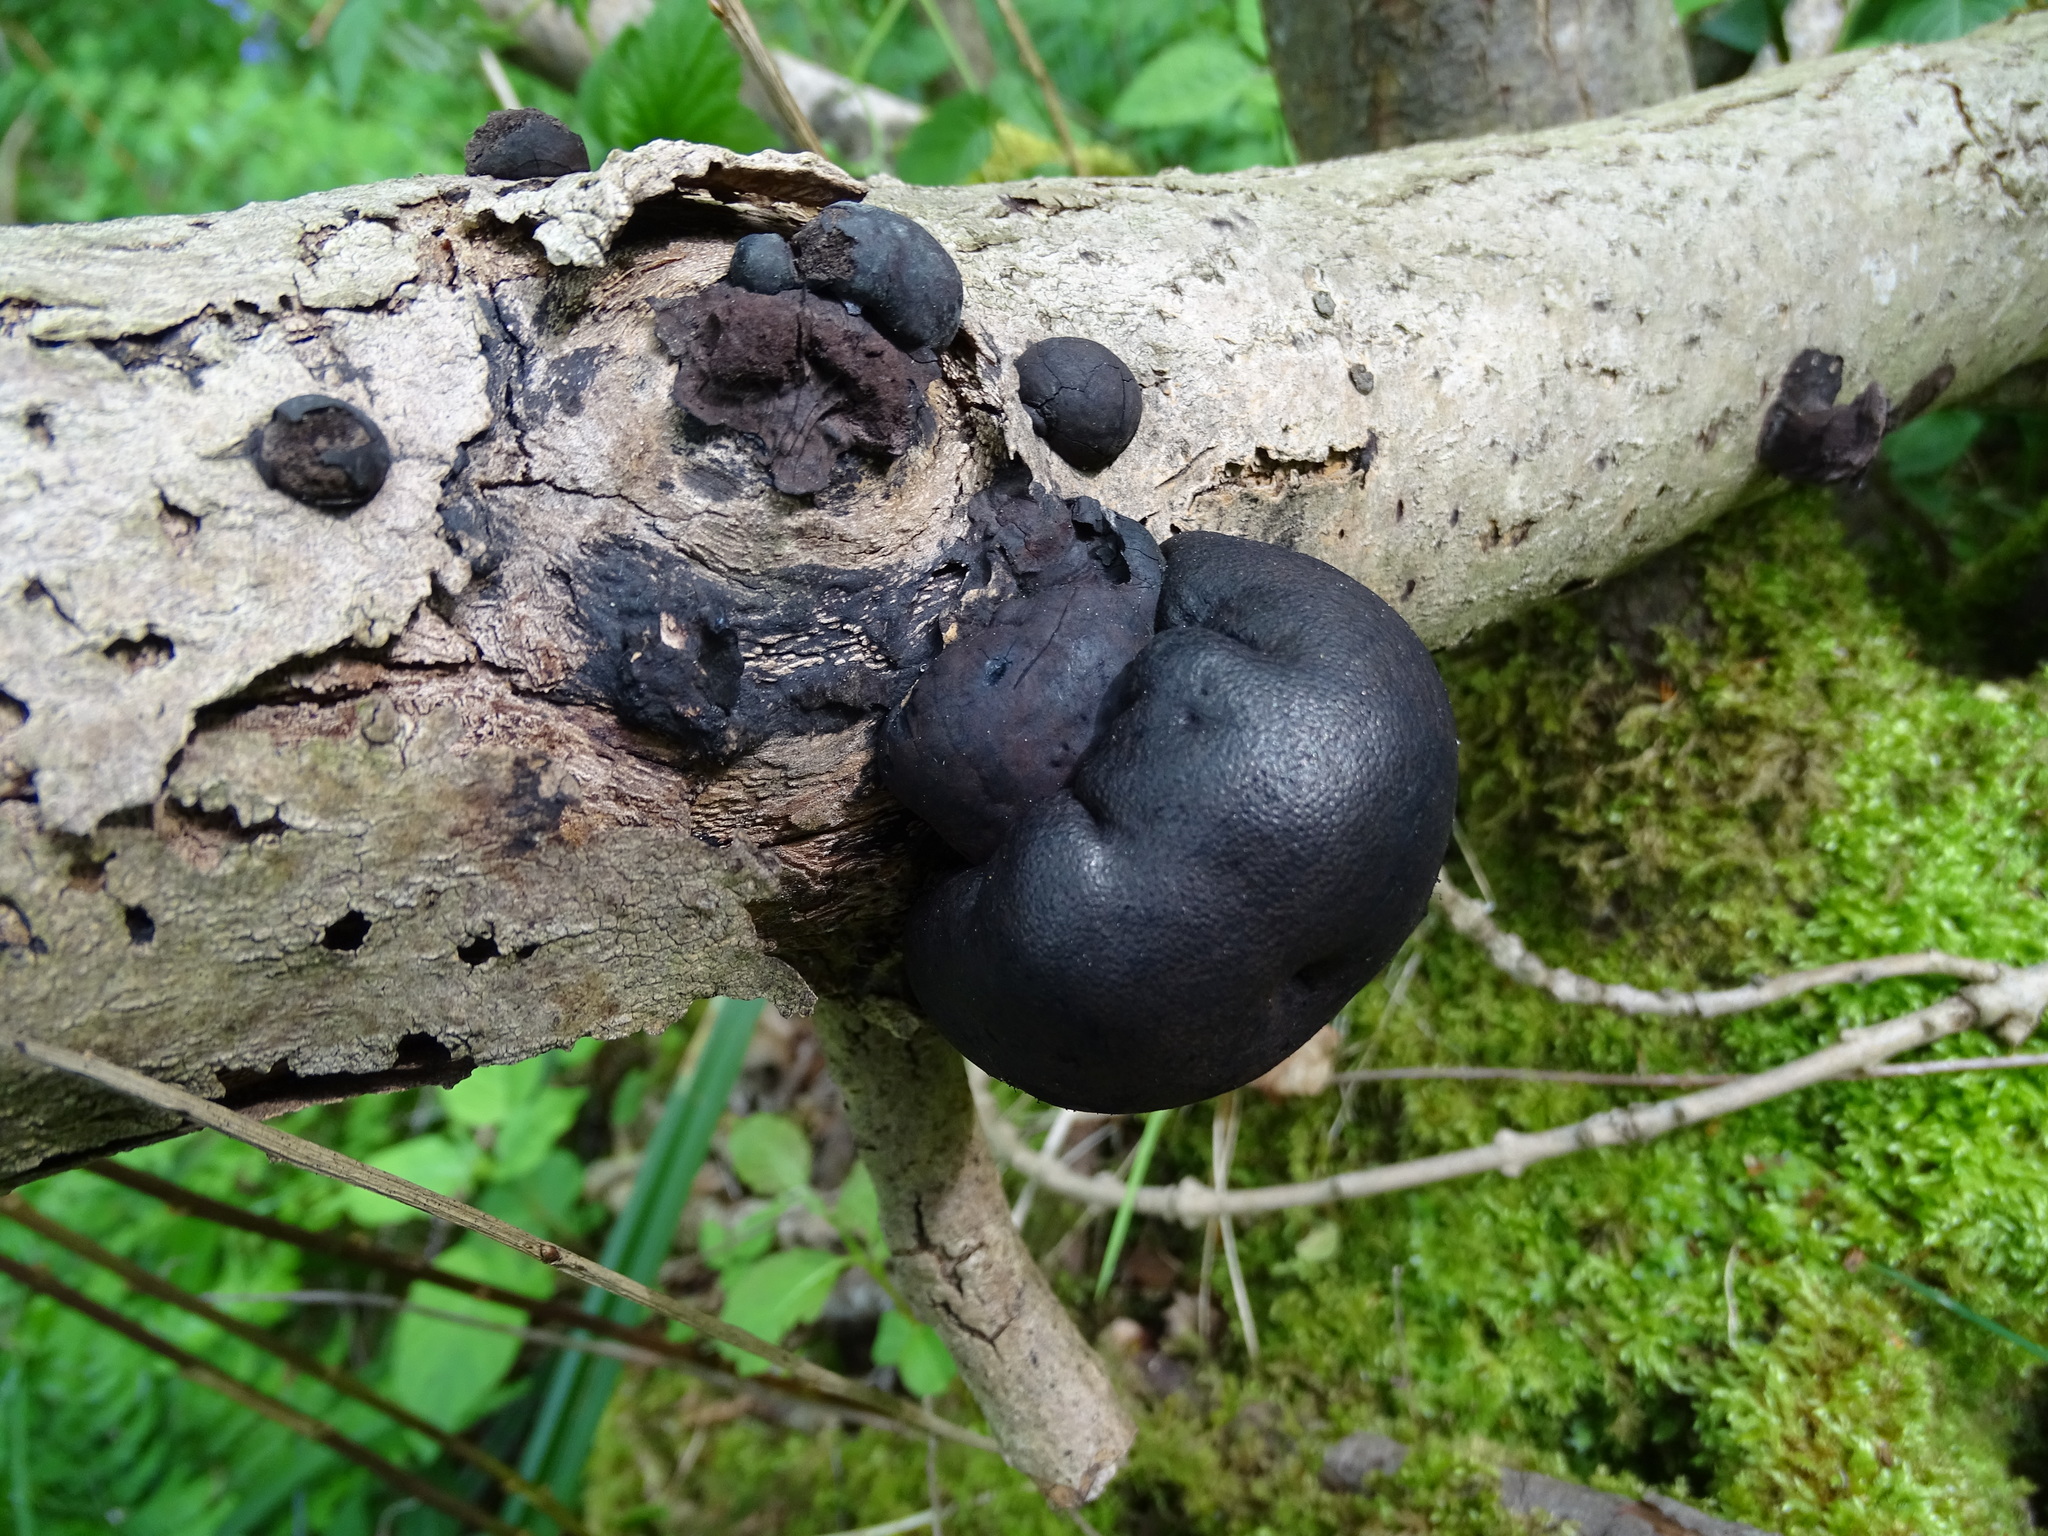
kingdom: Fungi
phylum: Ascomycota
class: Sordariomycetes
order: Xylariales
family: Hypoxylaceae
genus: Daldinia
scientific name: Daldinia concentrica
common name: Cramp balls
